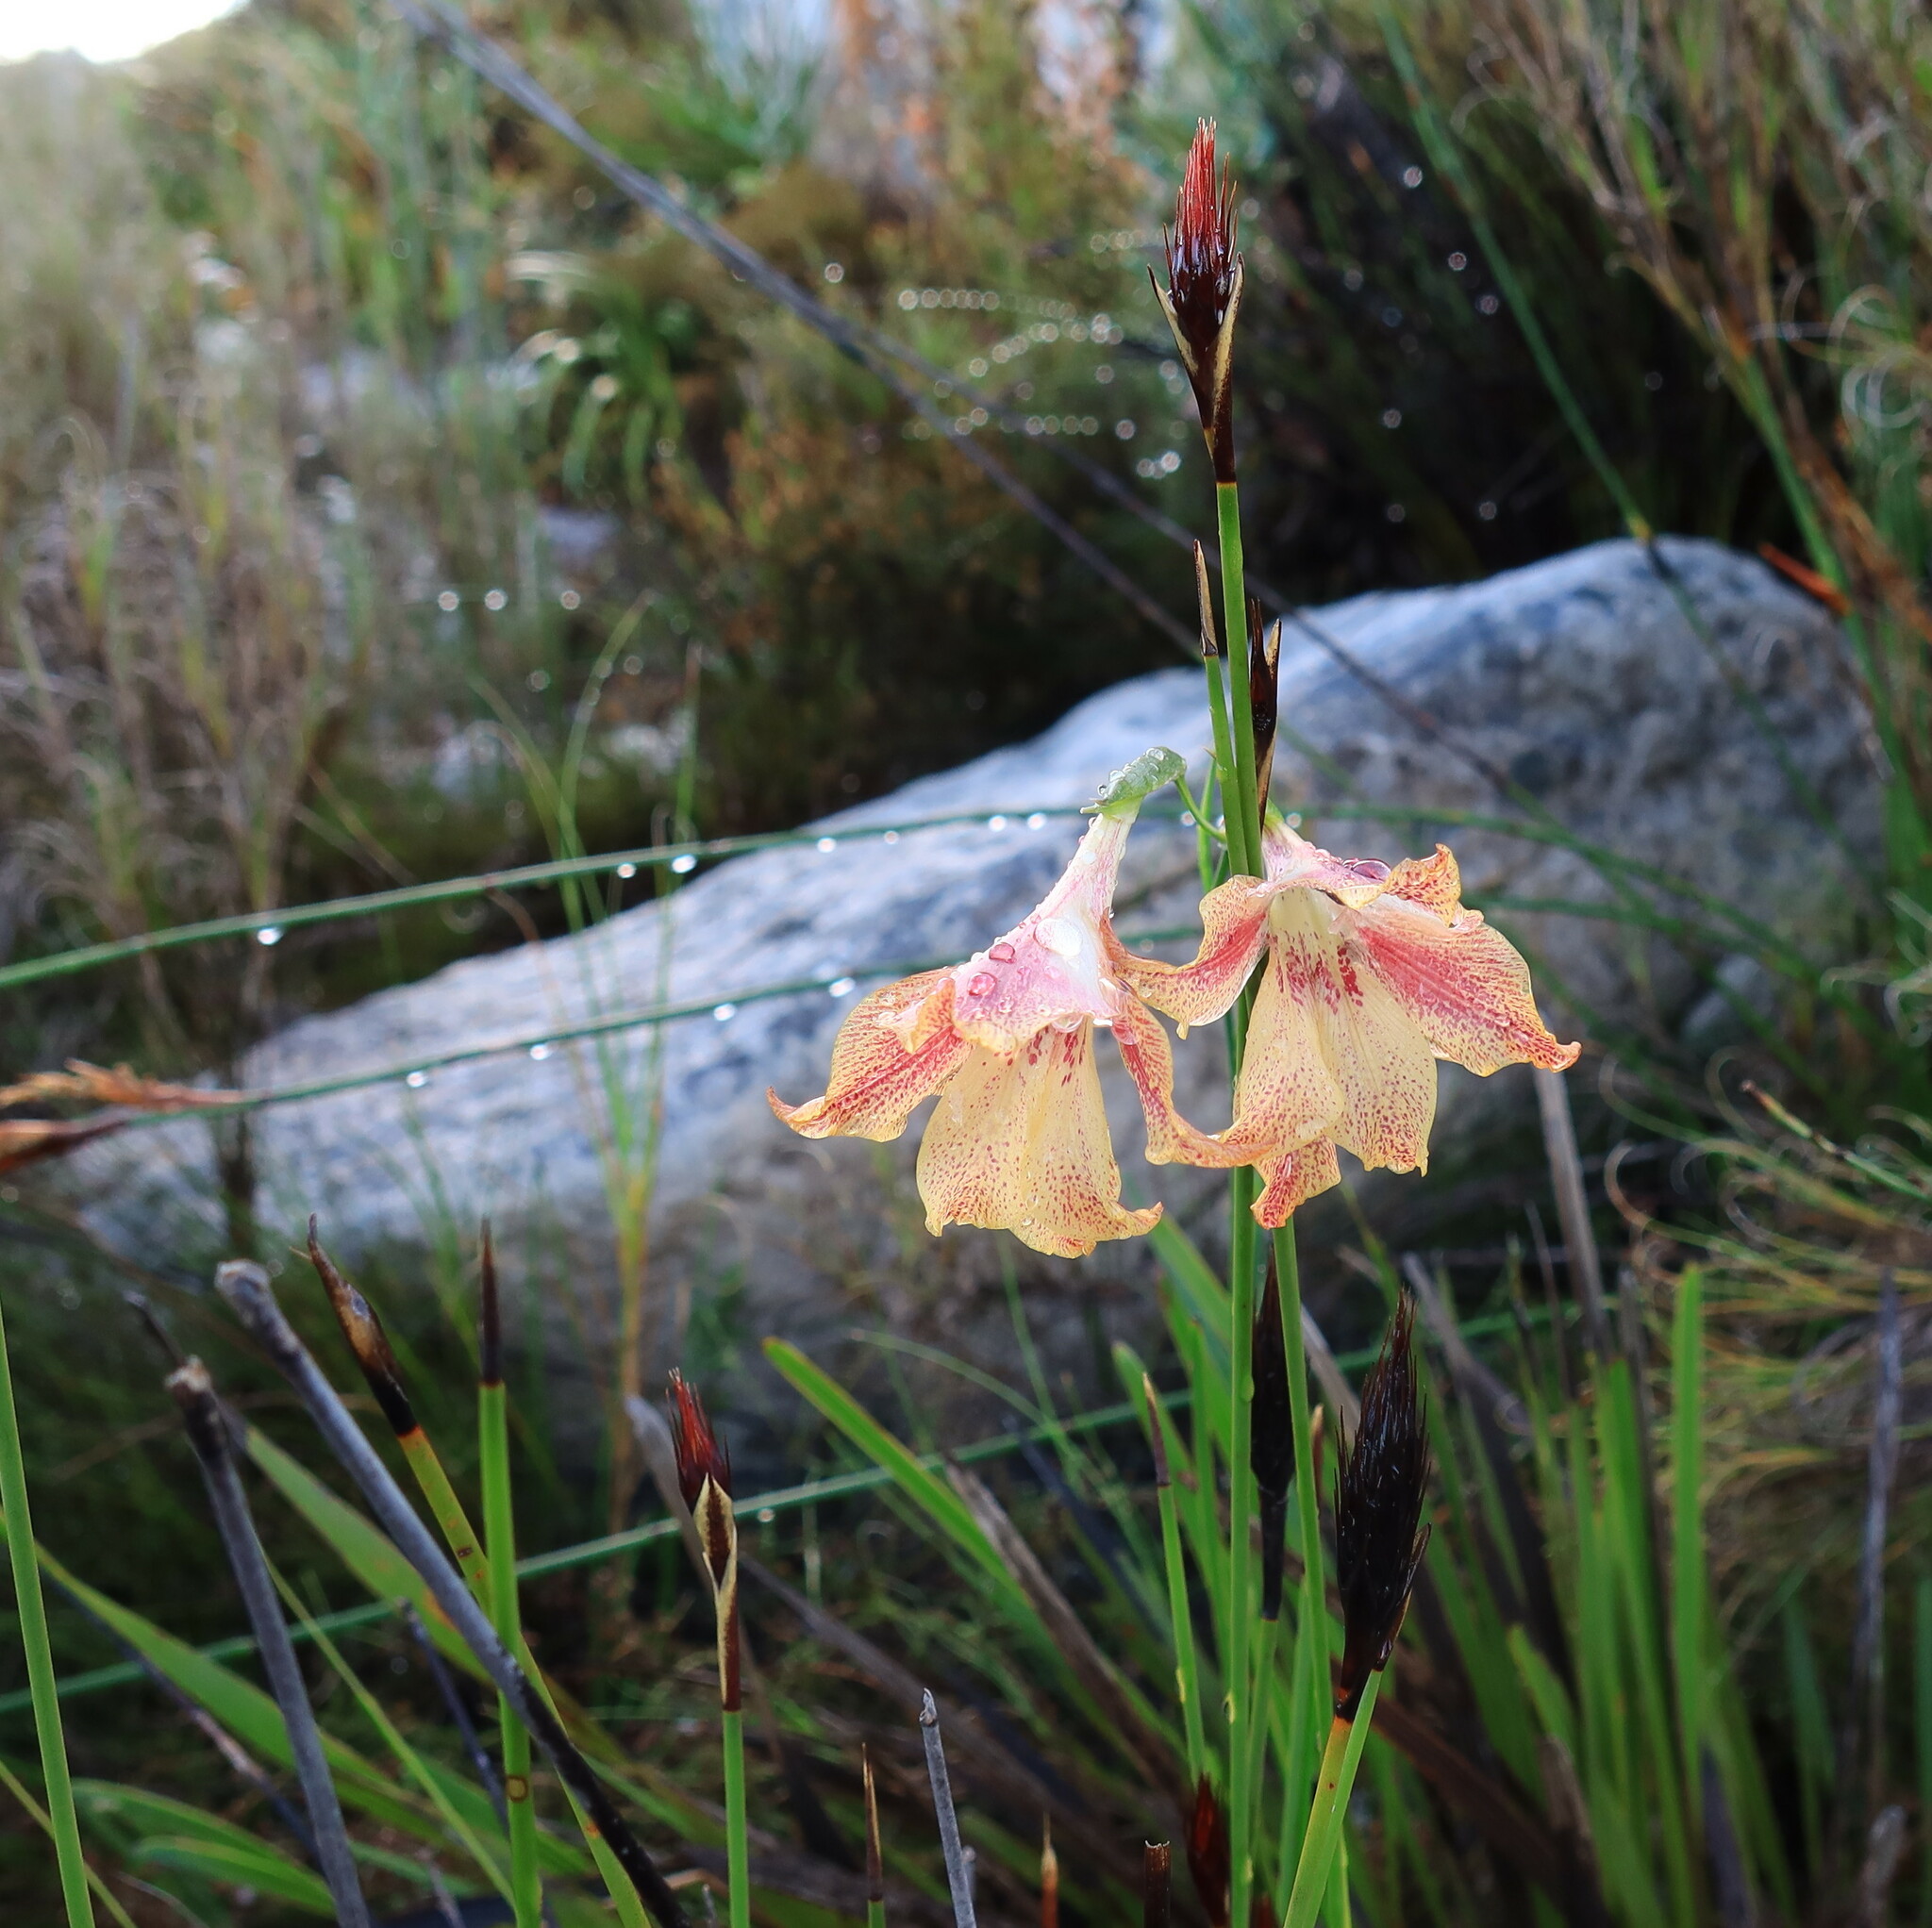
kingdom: Plantae
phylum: Tracheophyta
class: Liliopsida
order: Asparagales
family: Iridaceae
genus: Gladiolus
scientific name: Gladiolus maculatus
